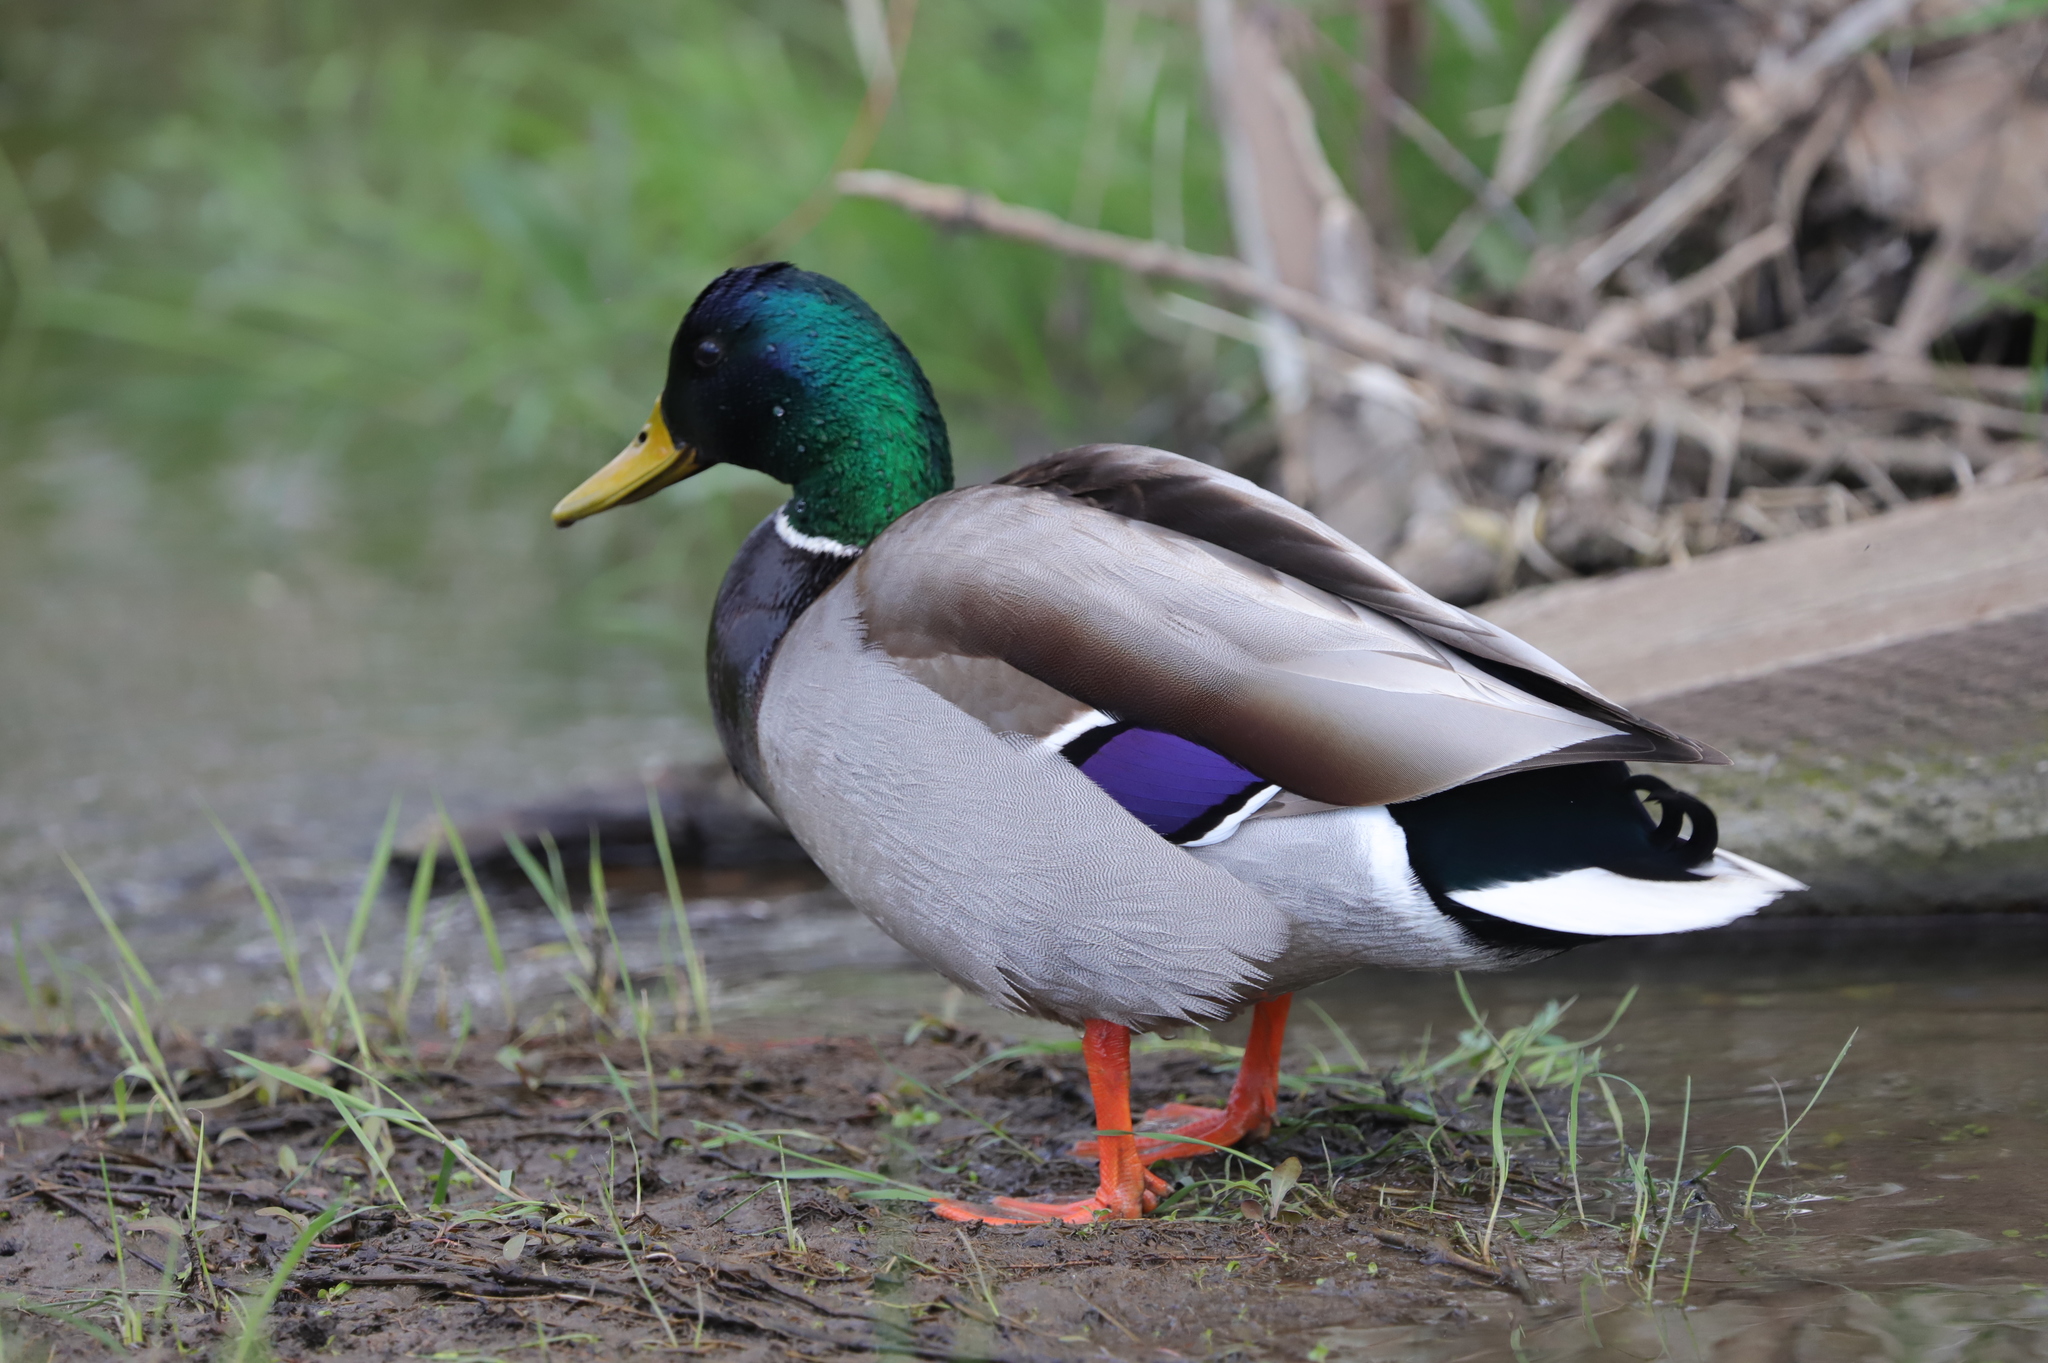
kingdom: Animalia
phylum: Chordata
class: Aves
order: Anseriformes
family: Anatidae
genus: Anas
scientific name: Anas platyrhynchos
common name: Mallard
